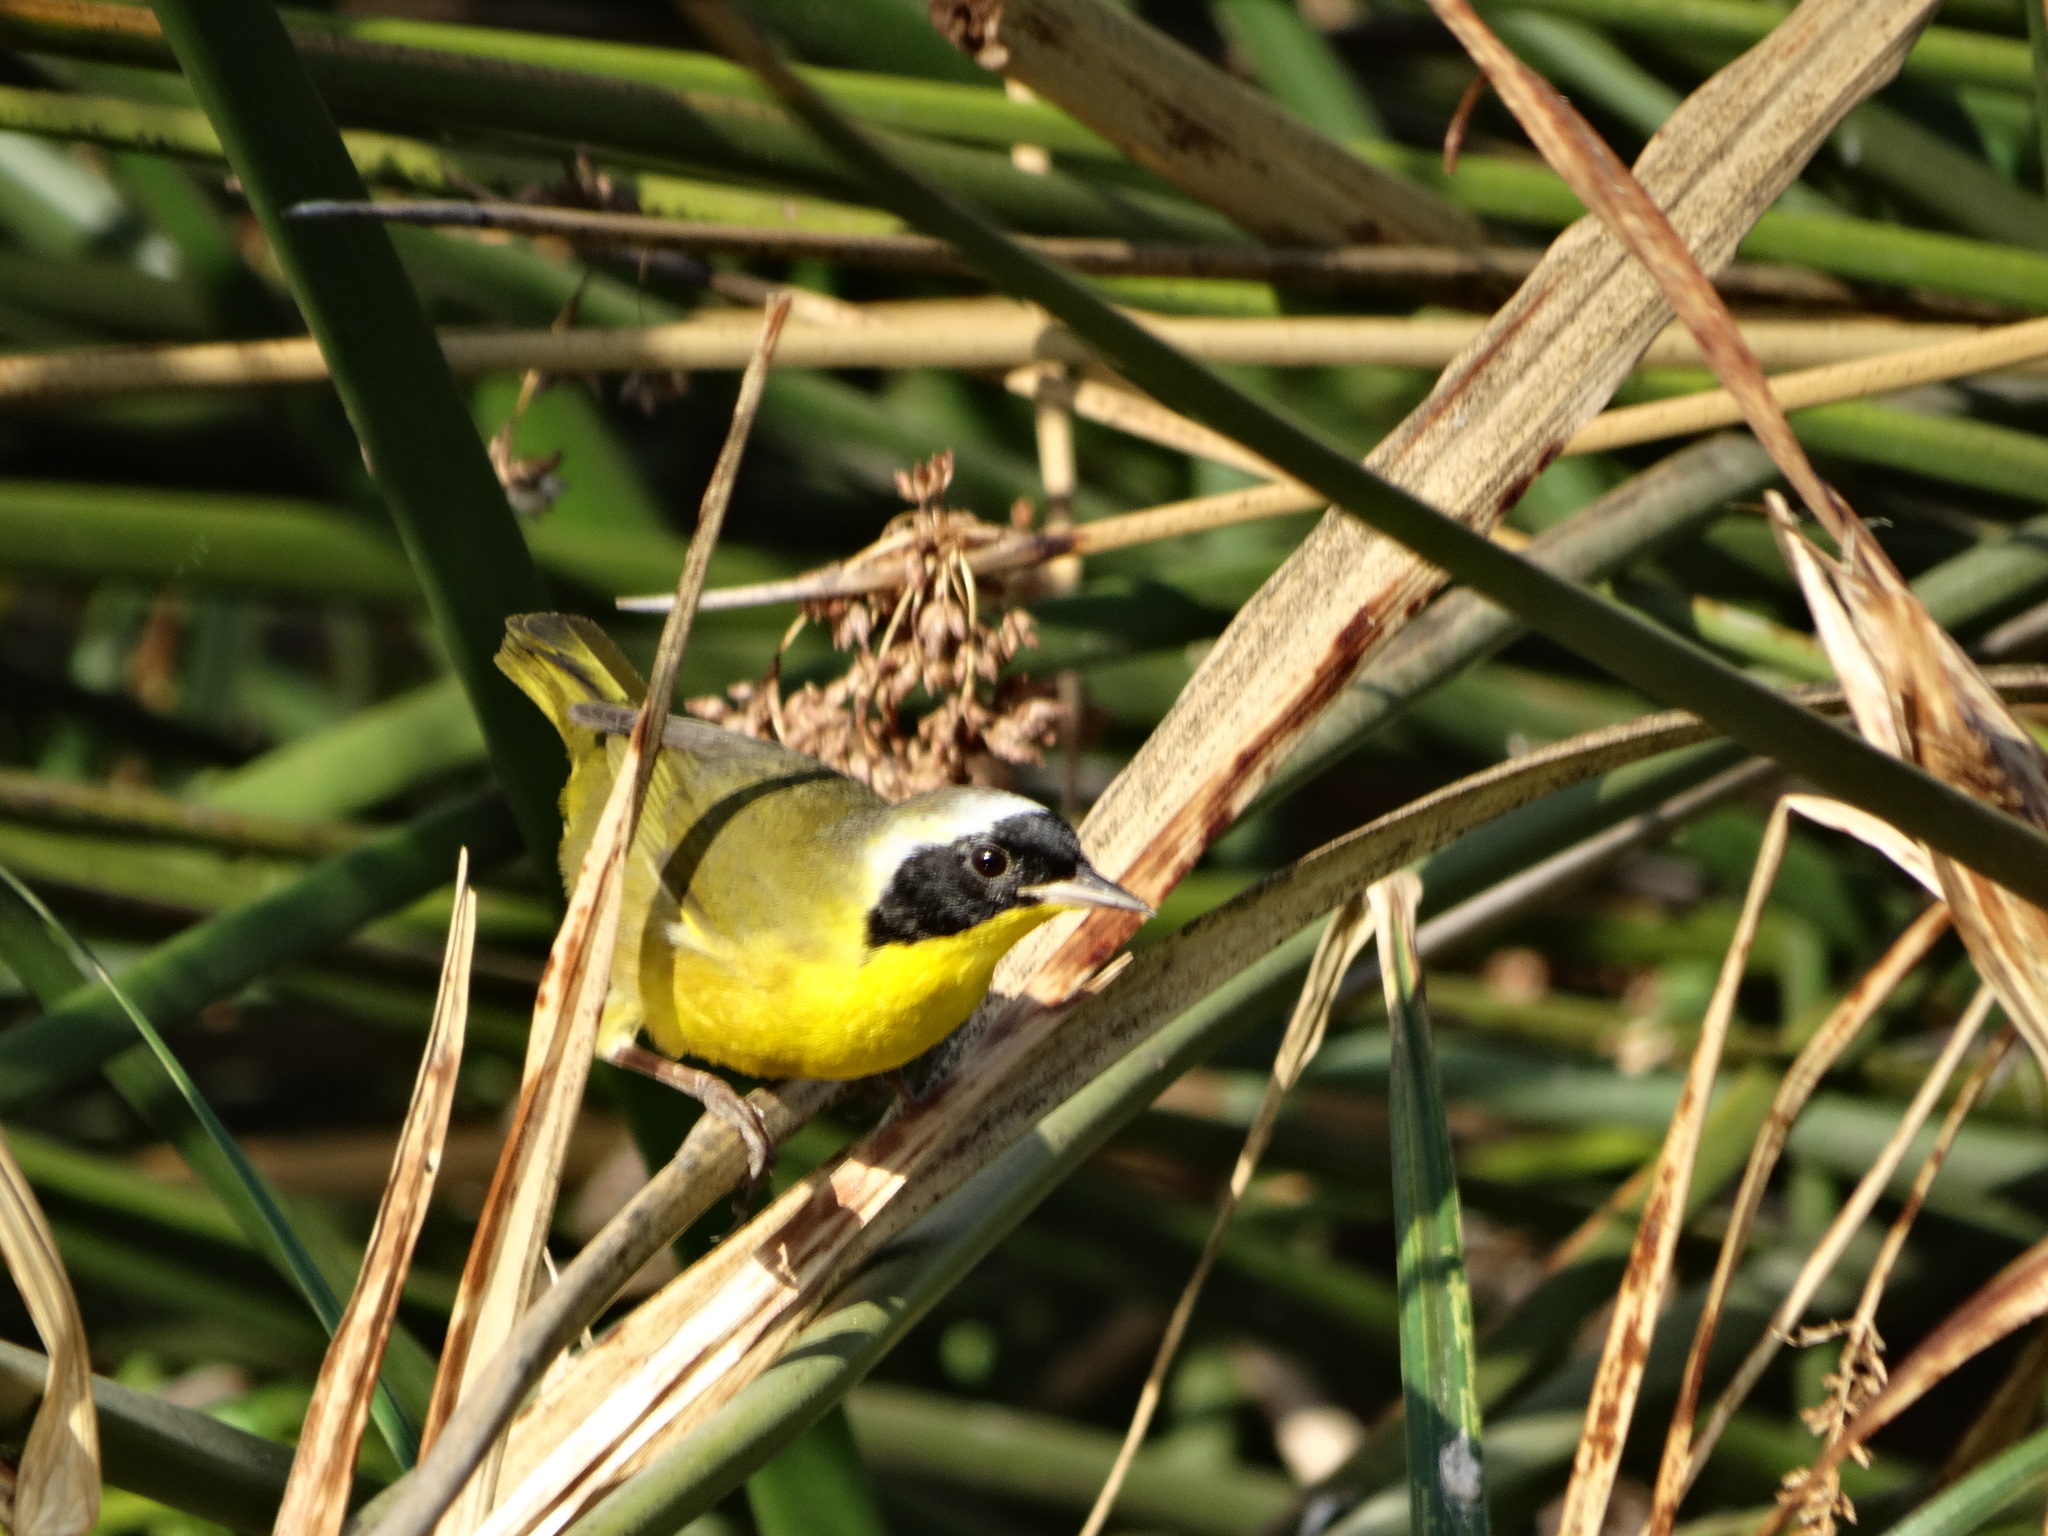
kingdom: Animalia
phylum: Chordata
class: Aves
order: Passeriformes
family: Parulidae
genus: Geothlypis
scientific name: Geothlypis trichas
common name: Common yellowthroat
